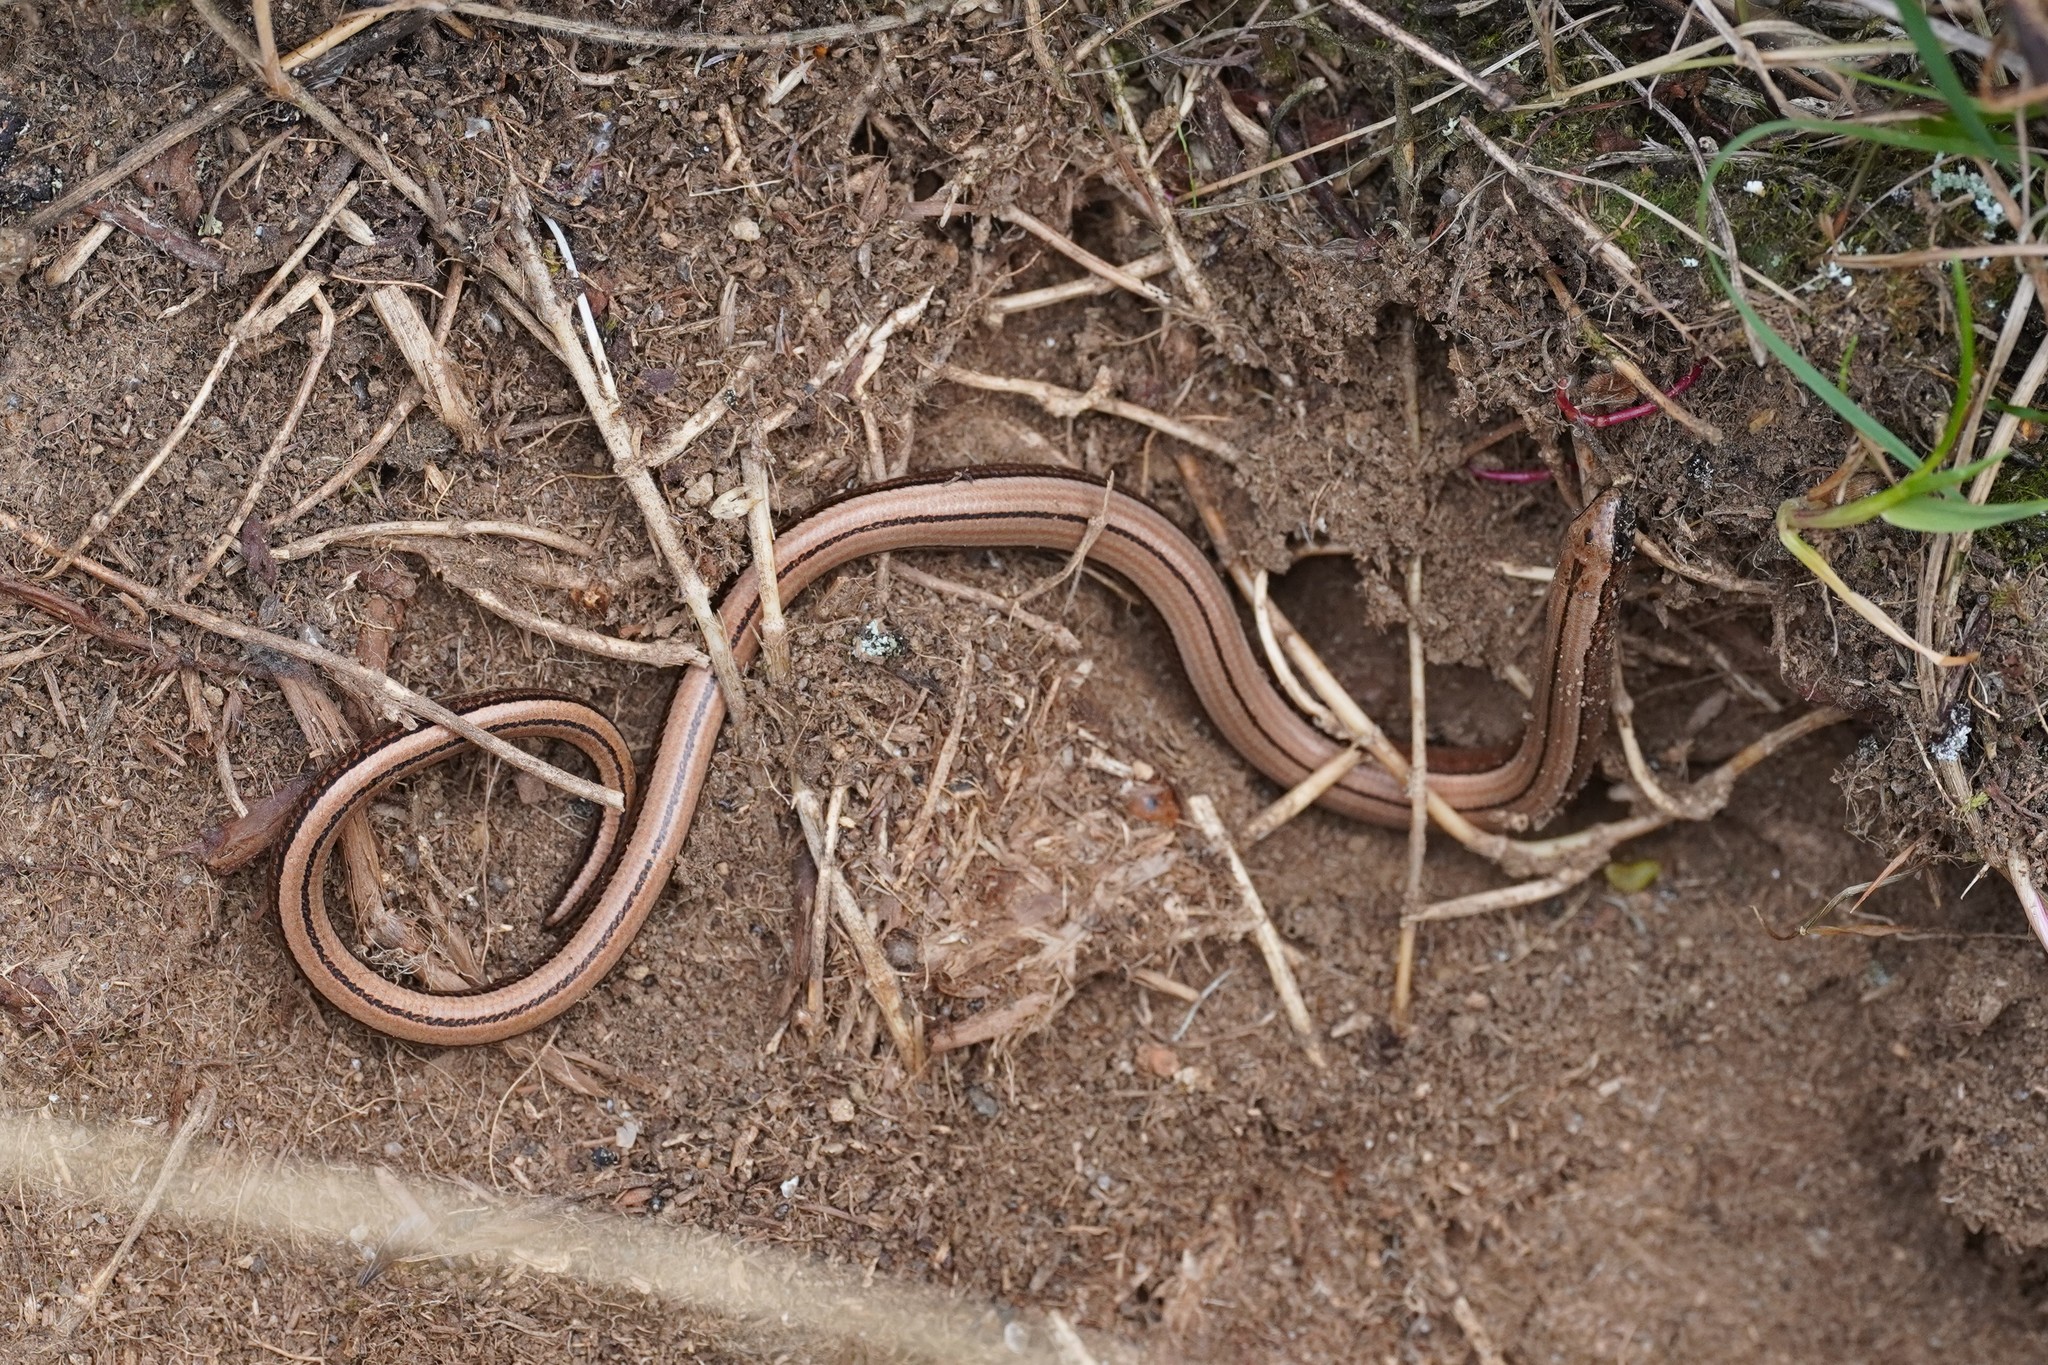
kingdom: Animalia
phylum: Chordata
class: Squamata
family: Anguidae
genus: Anguis
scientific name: Anguis fragilis
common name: Slow worm
